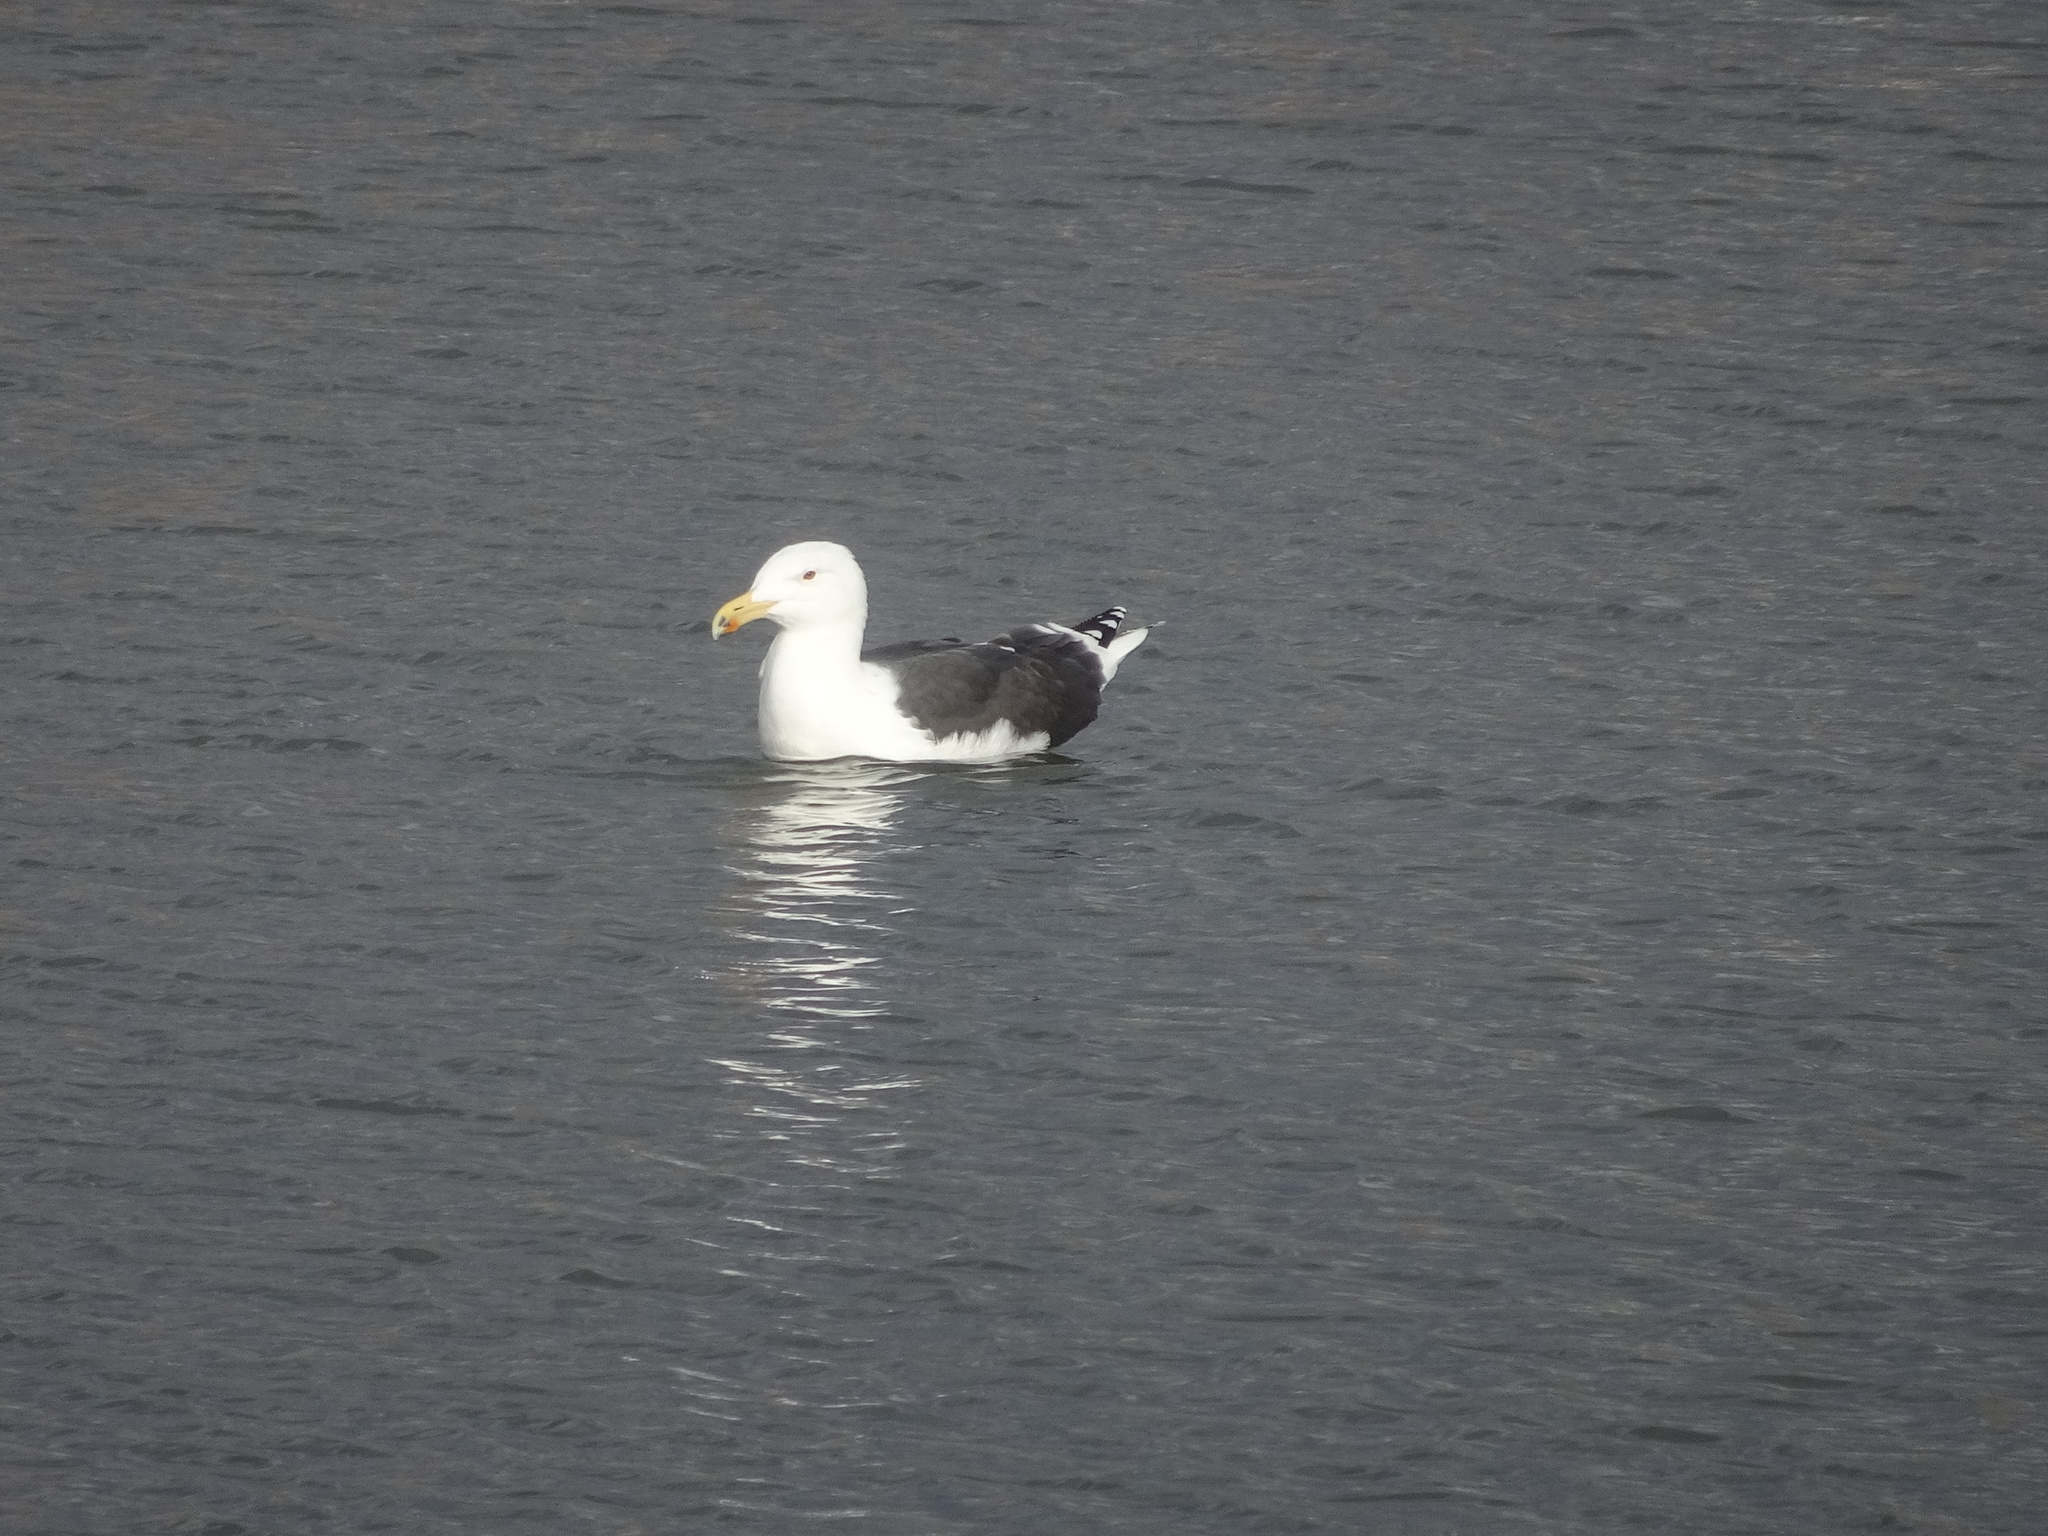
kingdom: Animalia
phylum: Chordata
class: Aves
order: Charadriiformes
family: Laridae
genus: Larus
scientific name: Larus marinus
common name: Great black-backed gull
